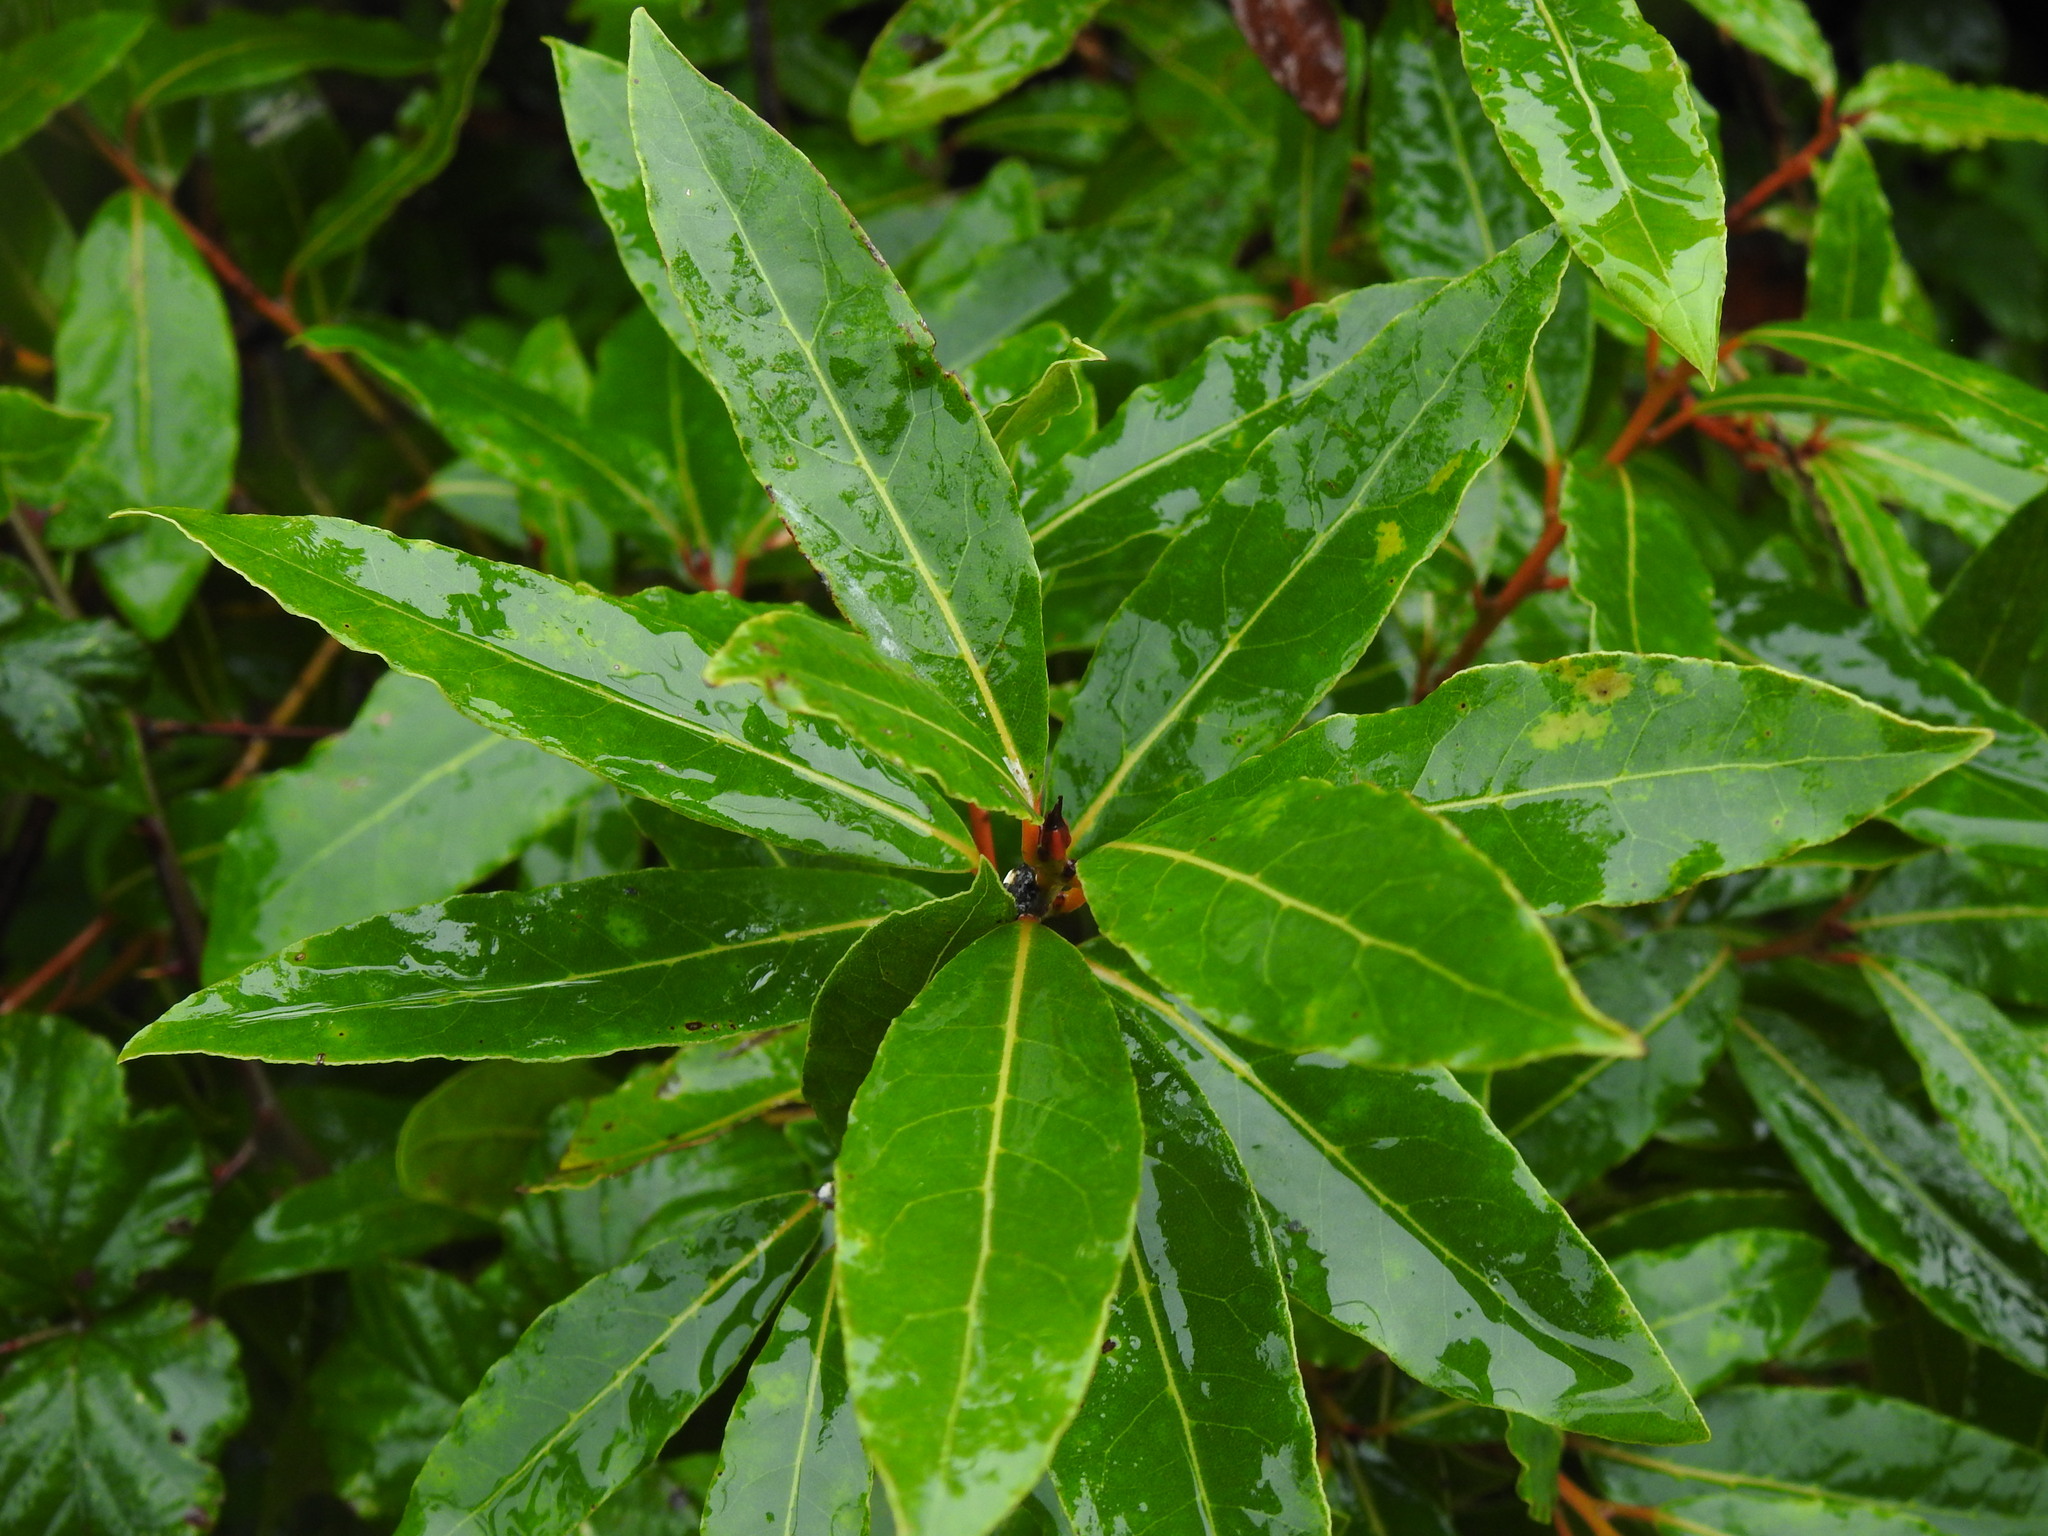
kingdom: Plantae
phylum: Tracheophyta
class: Magnoliopsida
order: Laurales
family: Lauraceae
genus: Laurus
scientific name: Laurus nobilis
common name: Bay
